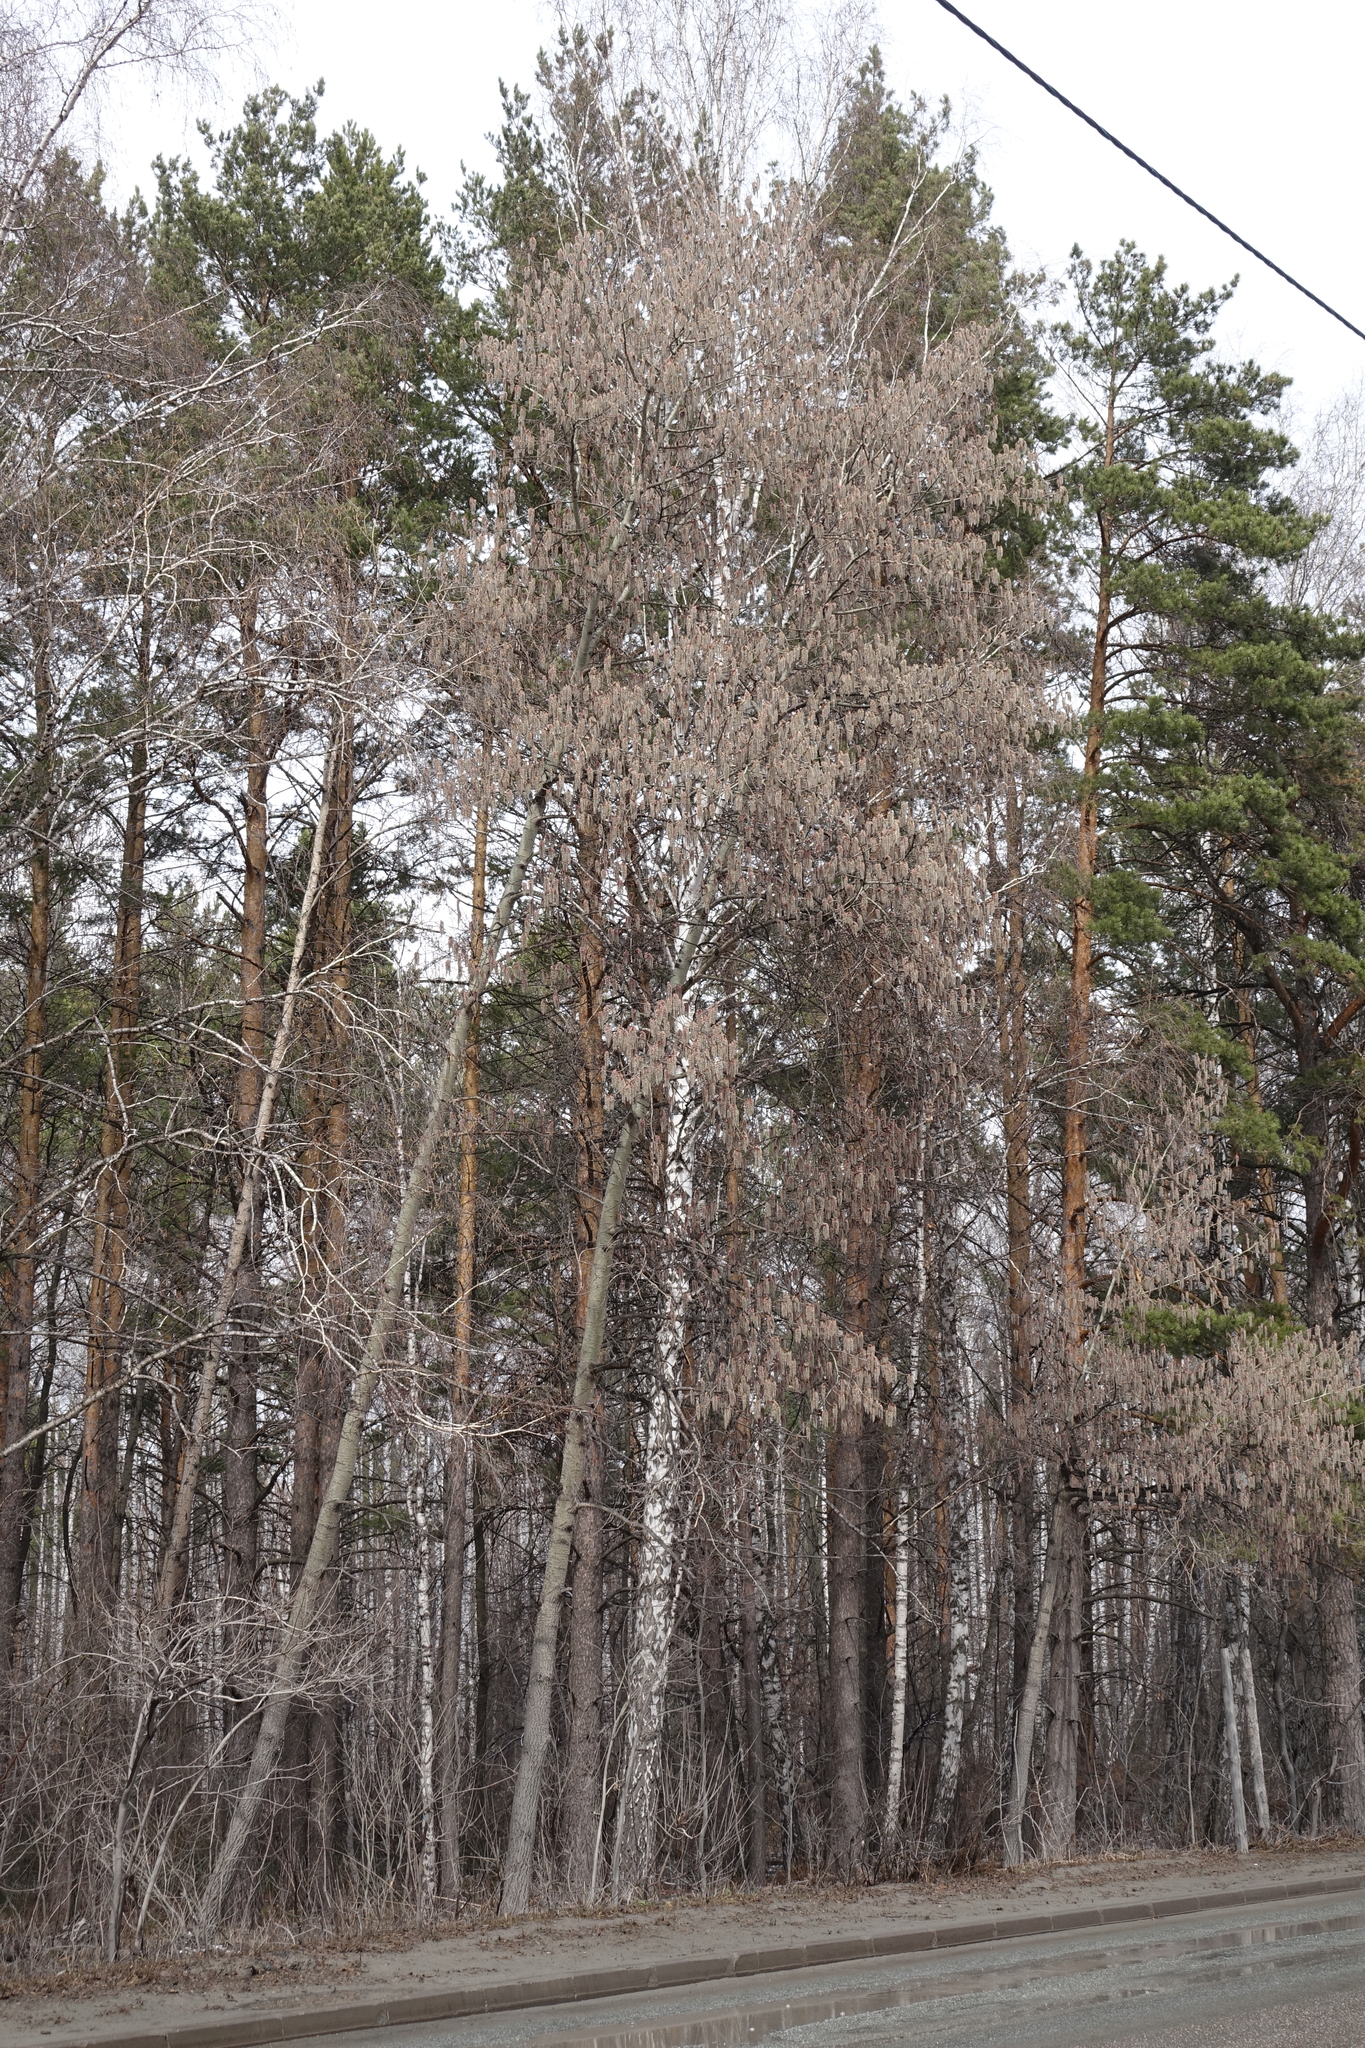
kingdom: Plantae
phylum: Tracheophyta
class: Magnoliopsida
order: Malpighiales
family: Salicaceae
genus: Populus
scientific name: Populus tremula
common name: European aspen
